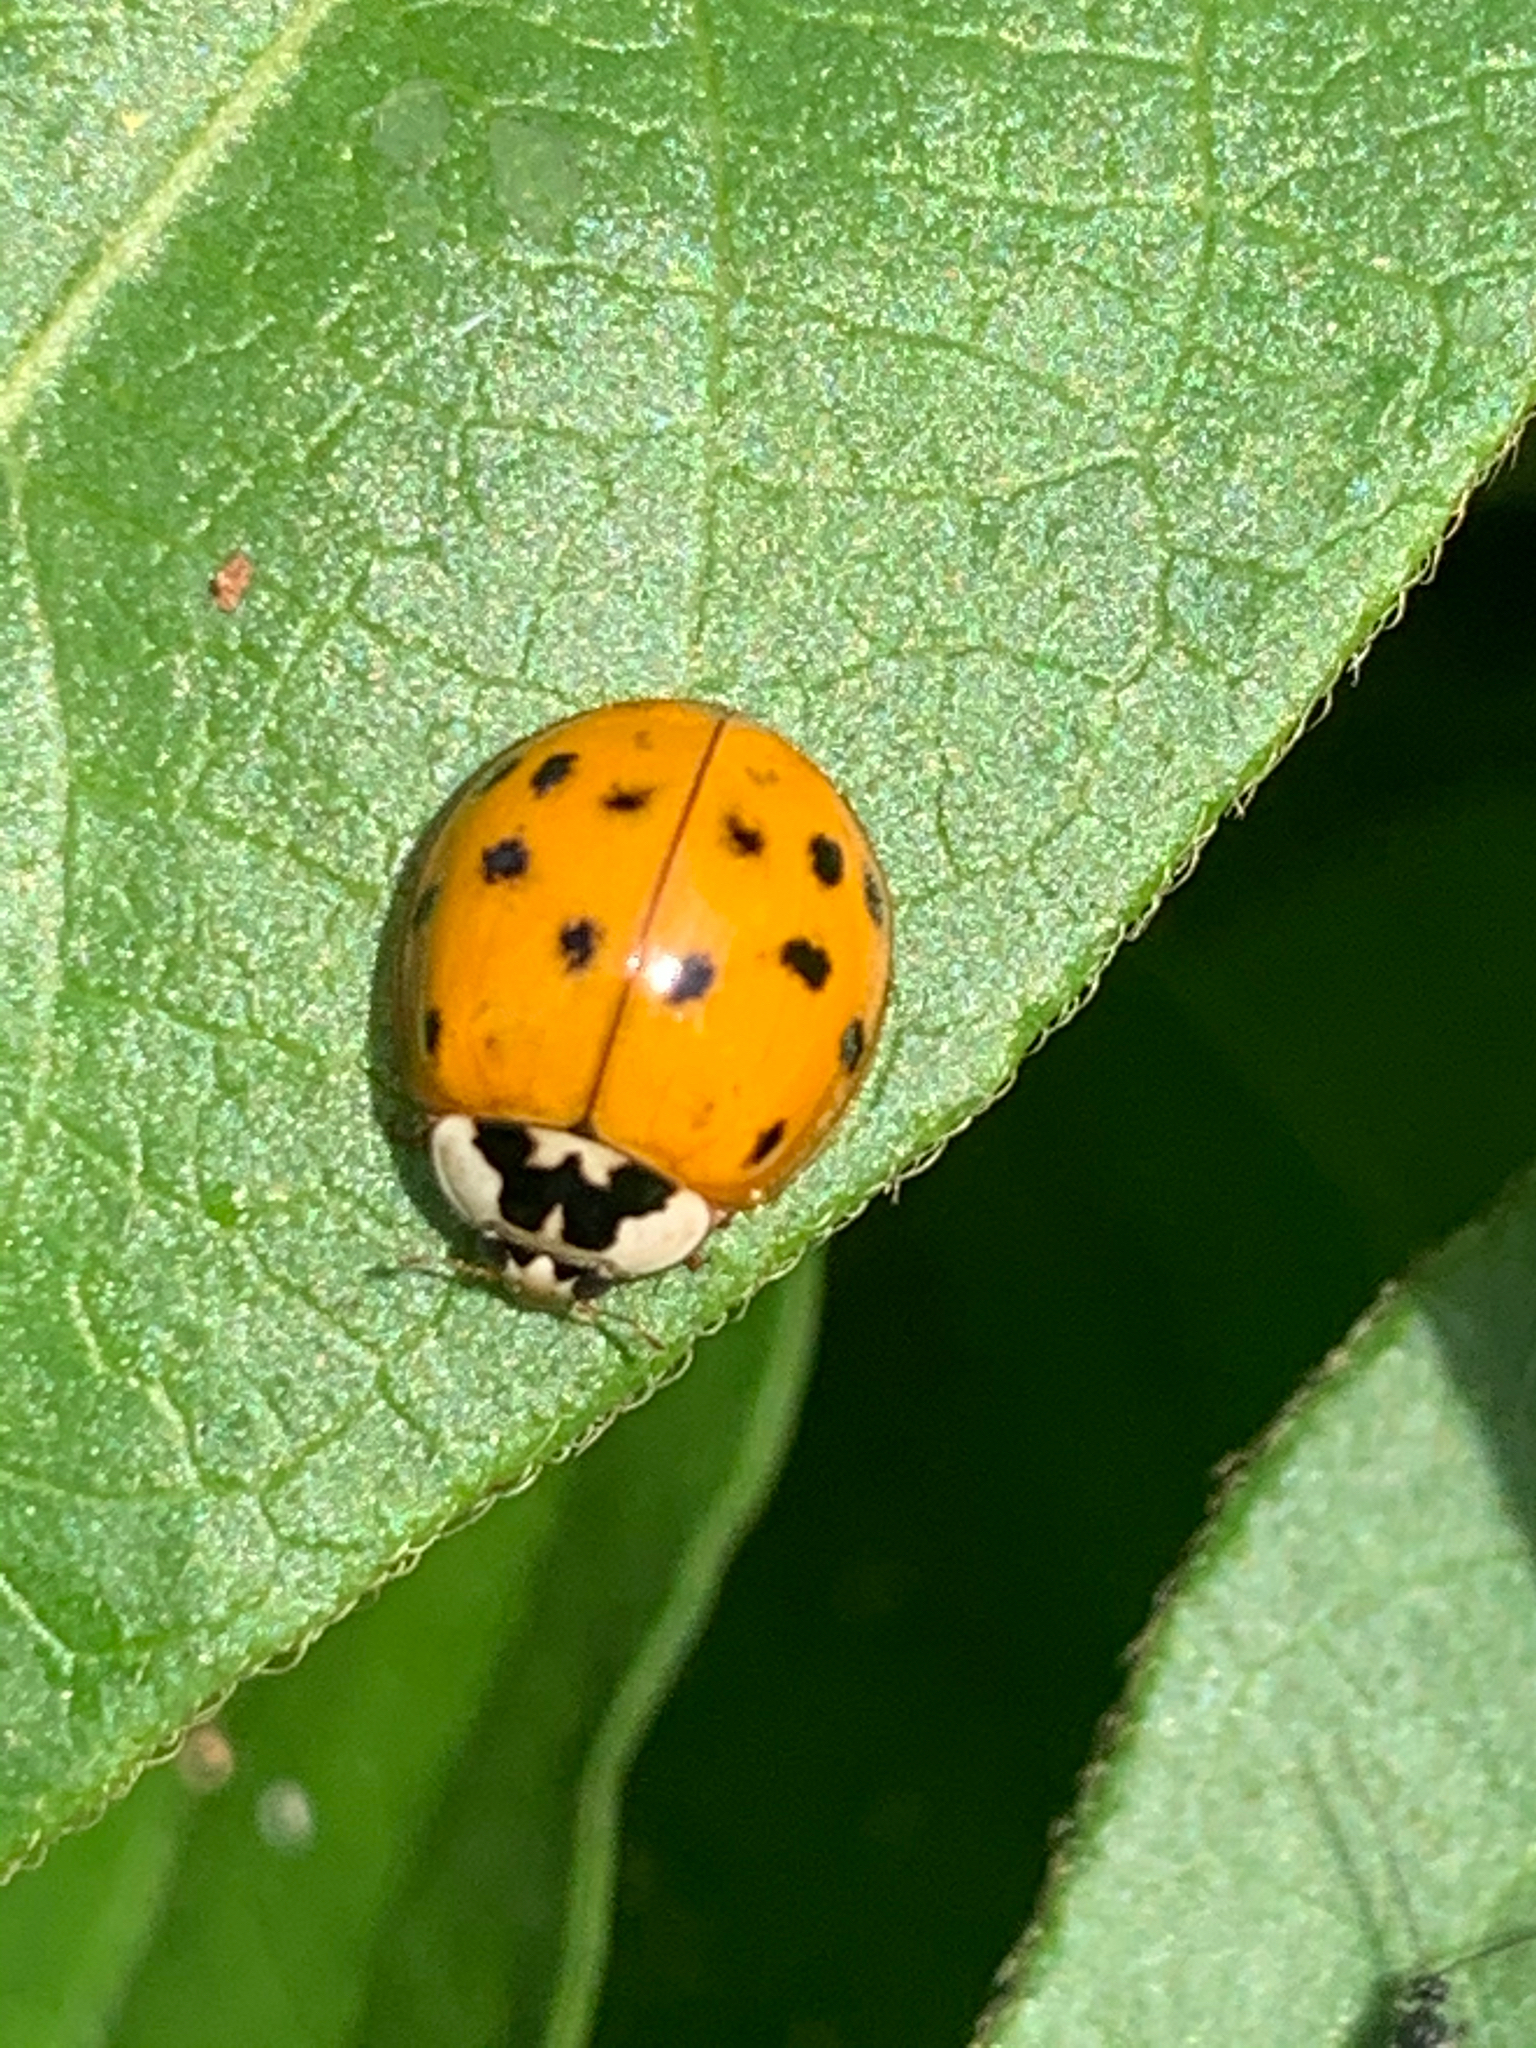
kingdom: Animalia
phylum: Arthropoda
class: Insecta
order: Coleoptera
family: Coccinellidae
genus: Harmonia
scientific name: Harmonia axyridis
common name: Harlequin ladybird
